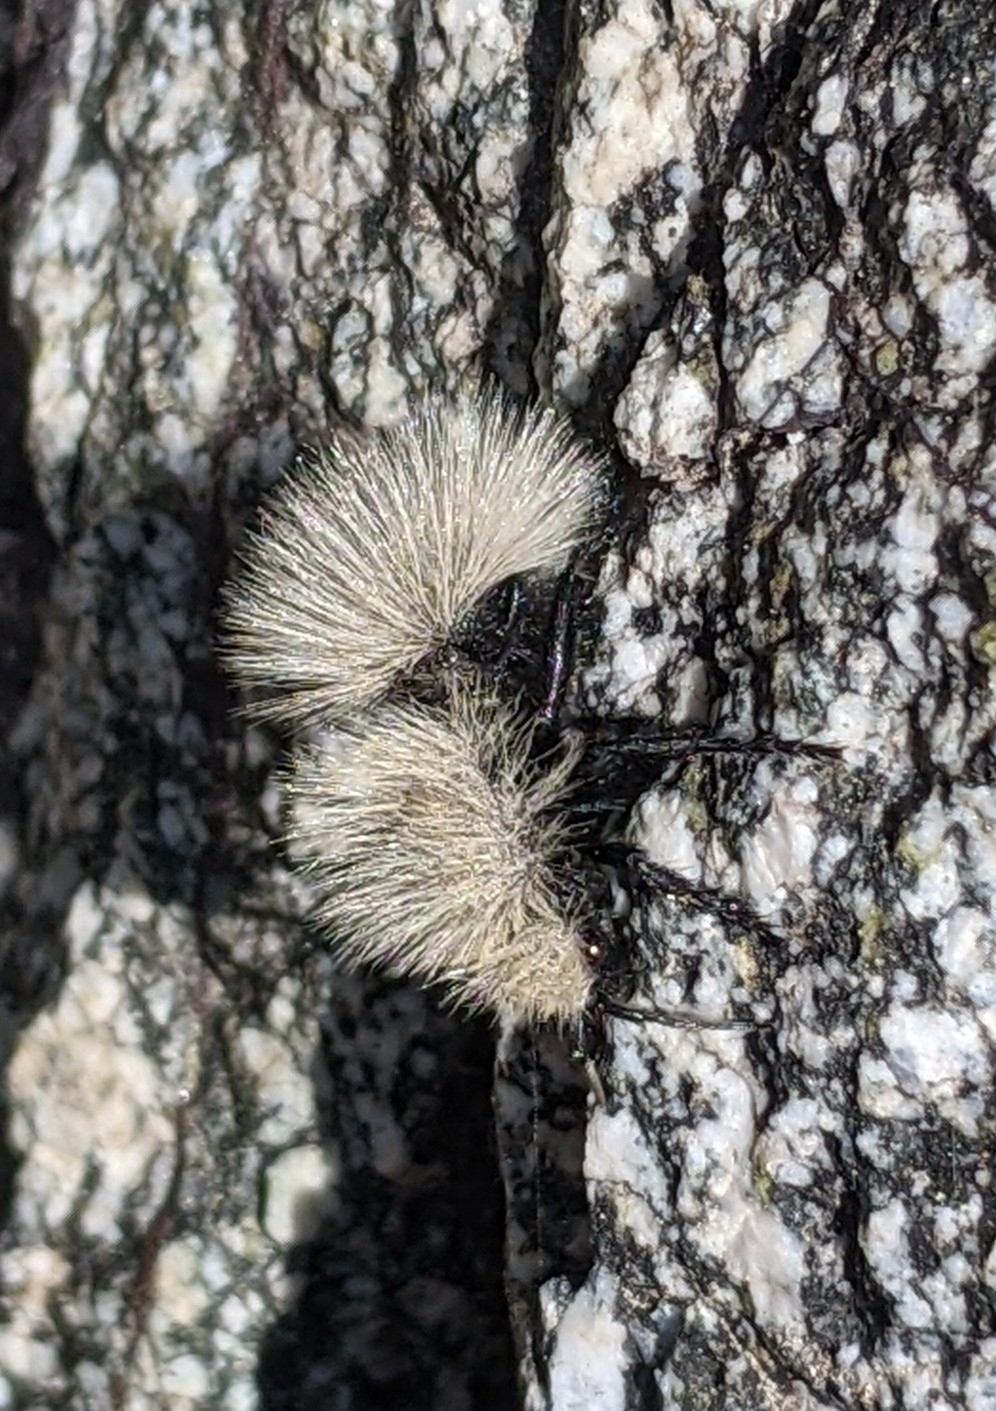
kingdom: Animalia
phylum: Arthropoda
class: Insecta
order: Hymenoptera
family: Mutillidae
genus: Dasymutilla
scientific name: Dasymutilla
